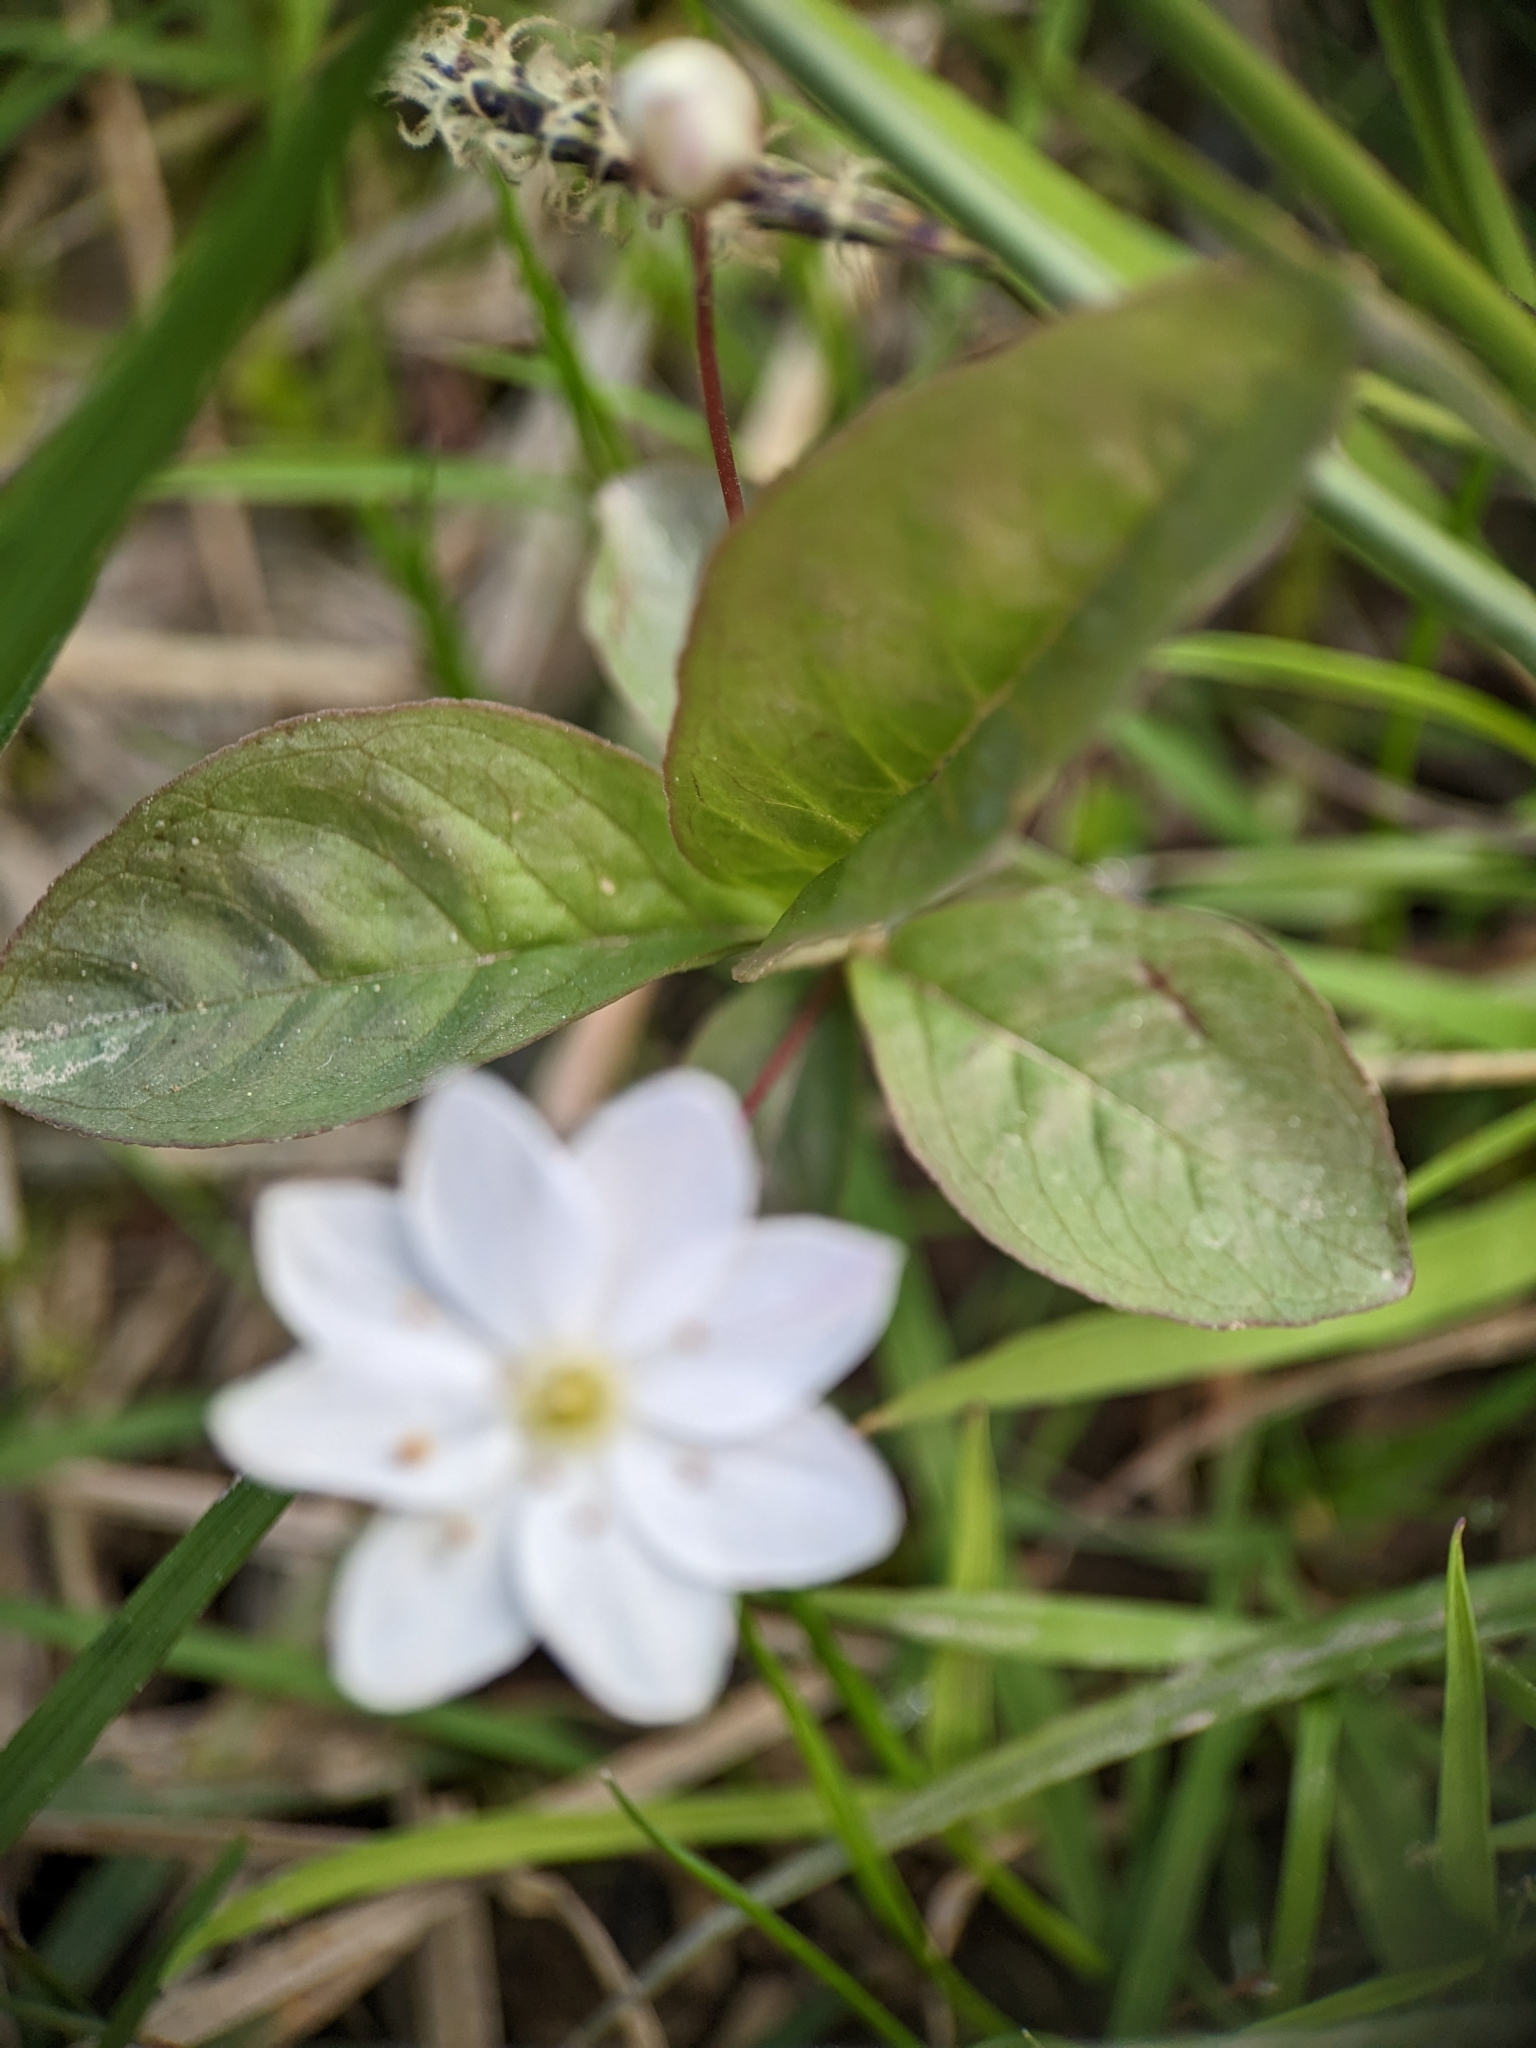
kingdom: Plantae
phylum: Tracheophyta
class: Magnoliopsida
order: Ericales
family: Primulaceae
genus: Lysimachia
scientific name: Lysimachia europaea
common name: Arctic starflower
